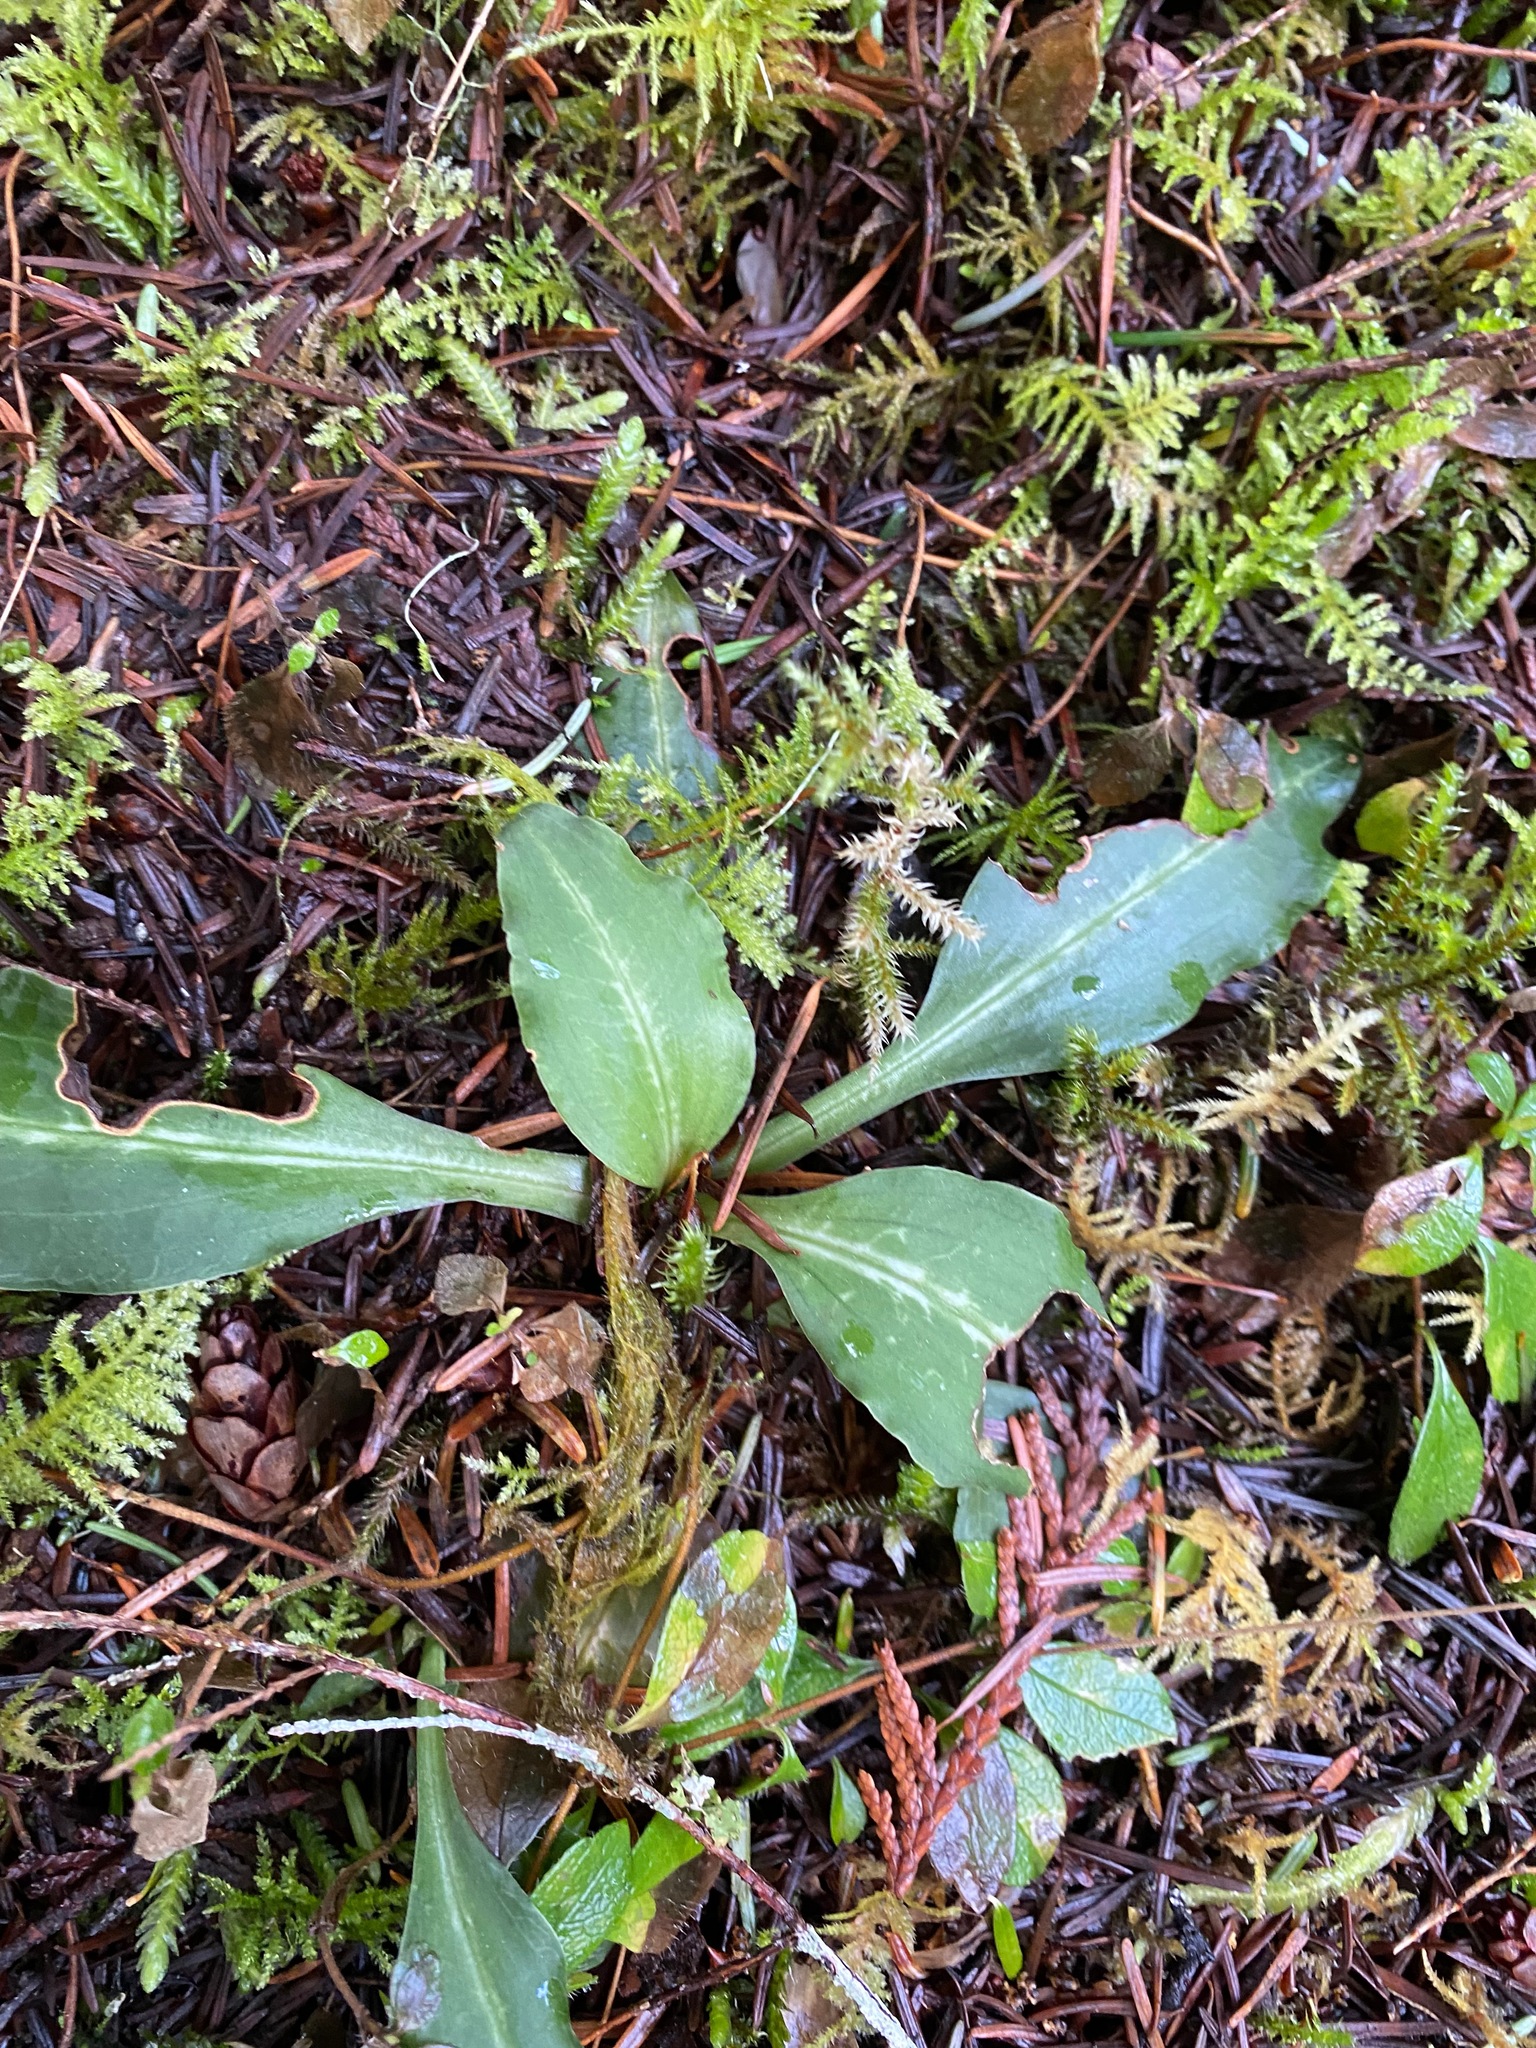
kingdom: Plantae
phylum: Tracheophyta
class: Liliopsida
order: Asparagales
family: Orchidaceae
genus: Goodyera
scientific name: Goodyera oblongifolia
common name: Giant rattlesnake-plantain
